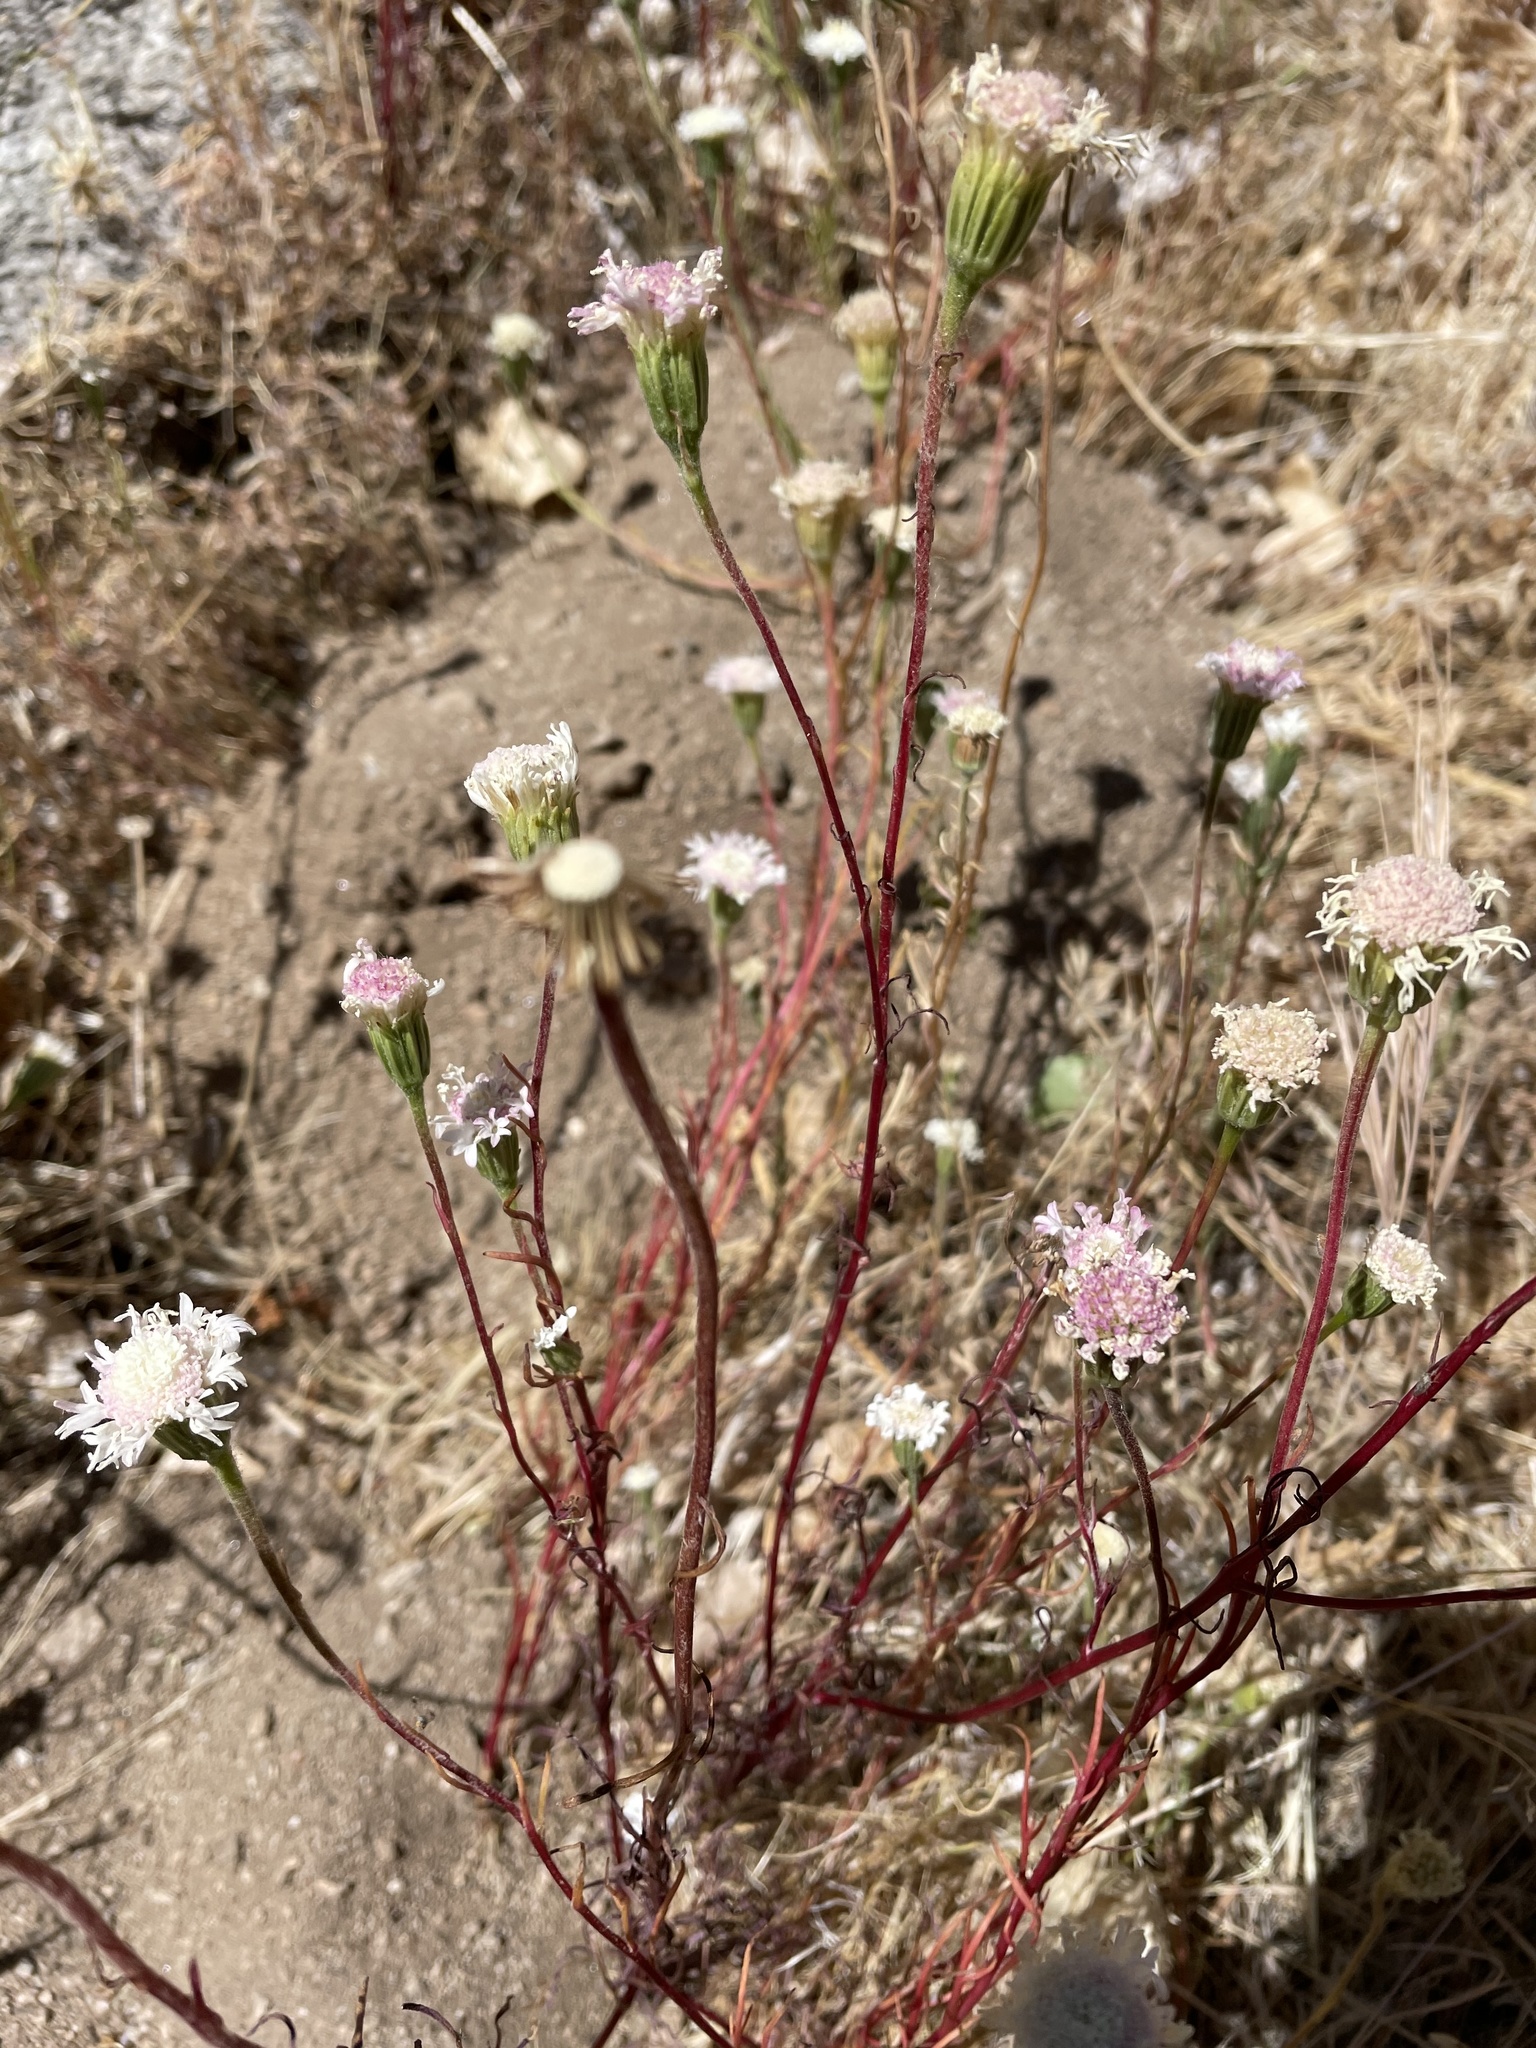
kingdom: Plantae
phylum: Tracheophyta
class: Magnoliopsida
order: Asterales
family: Asteraceae
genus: Chaenactis
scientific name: Chaenactis fremontii
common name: Fremont pincushion
